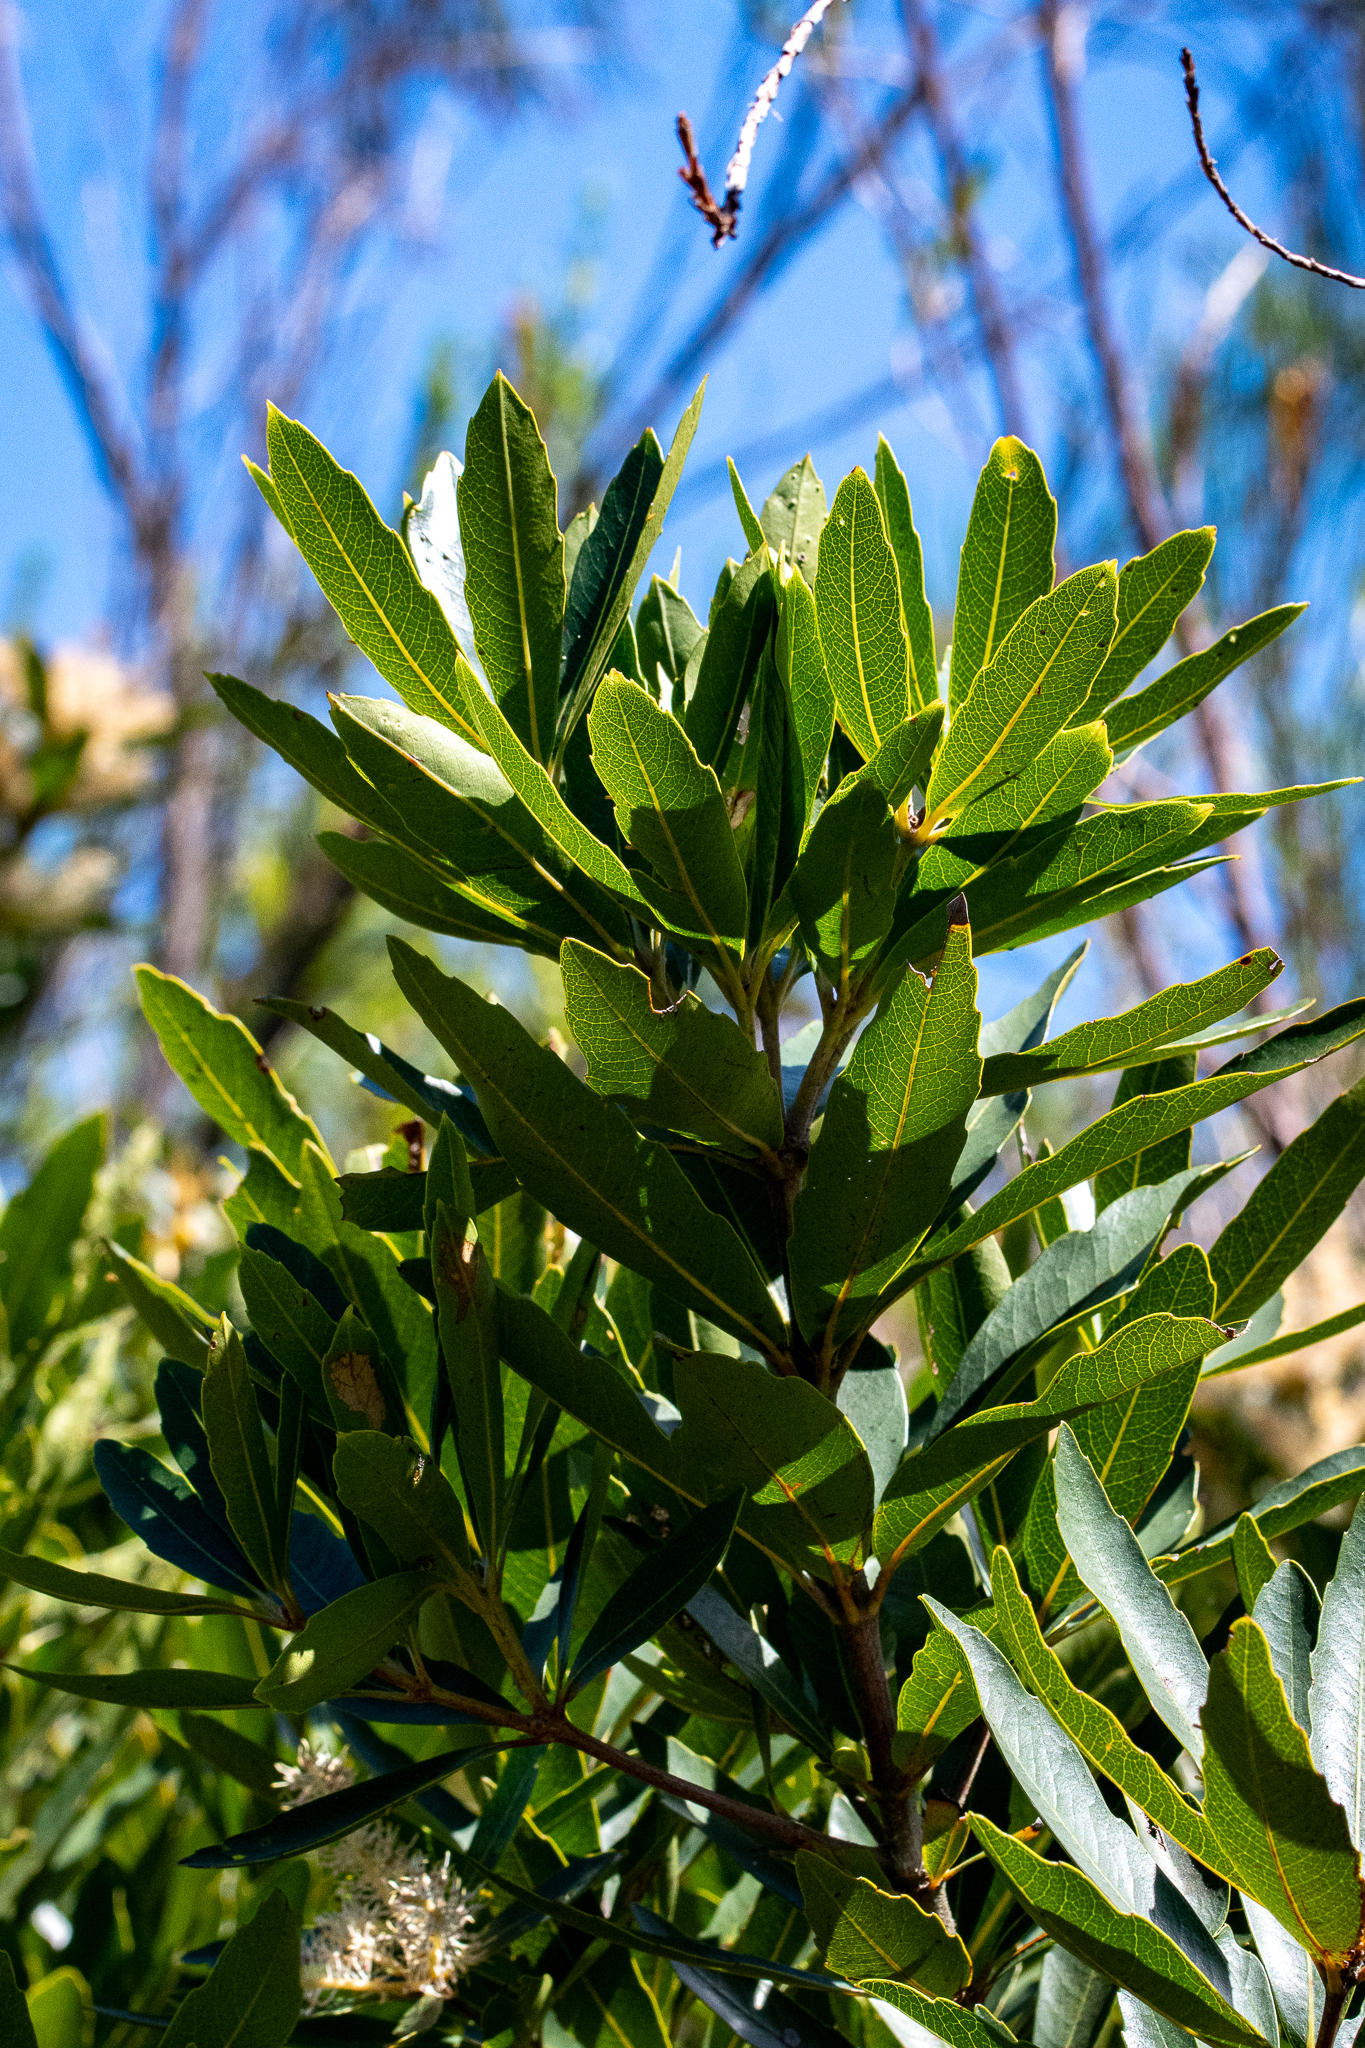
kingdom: Plantae
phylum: Tracheophyta
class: Magnoliopsida
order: Sapindales
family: Anacardiaceae
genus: Laurophyllus
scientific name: Laurophyllus capensis
